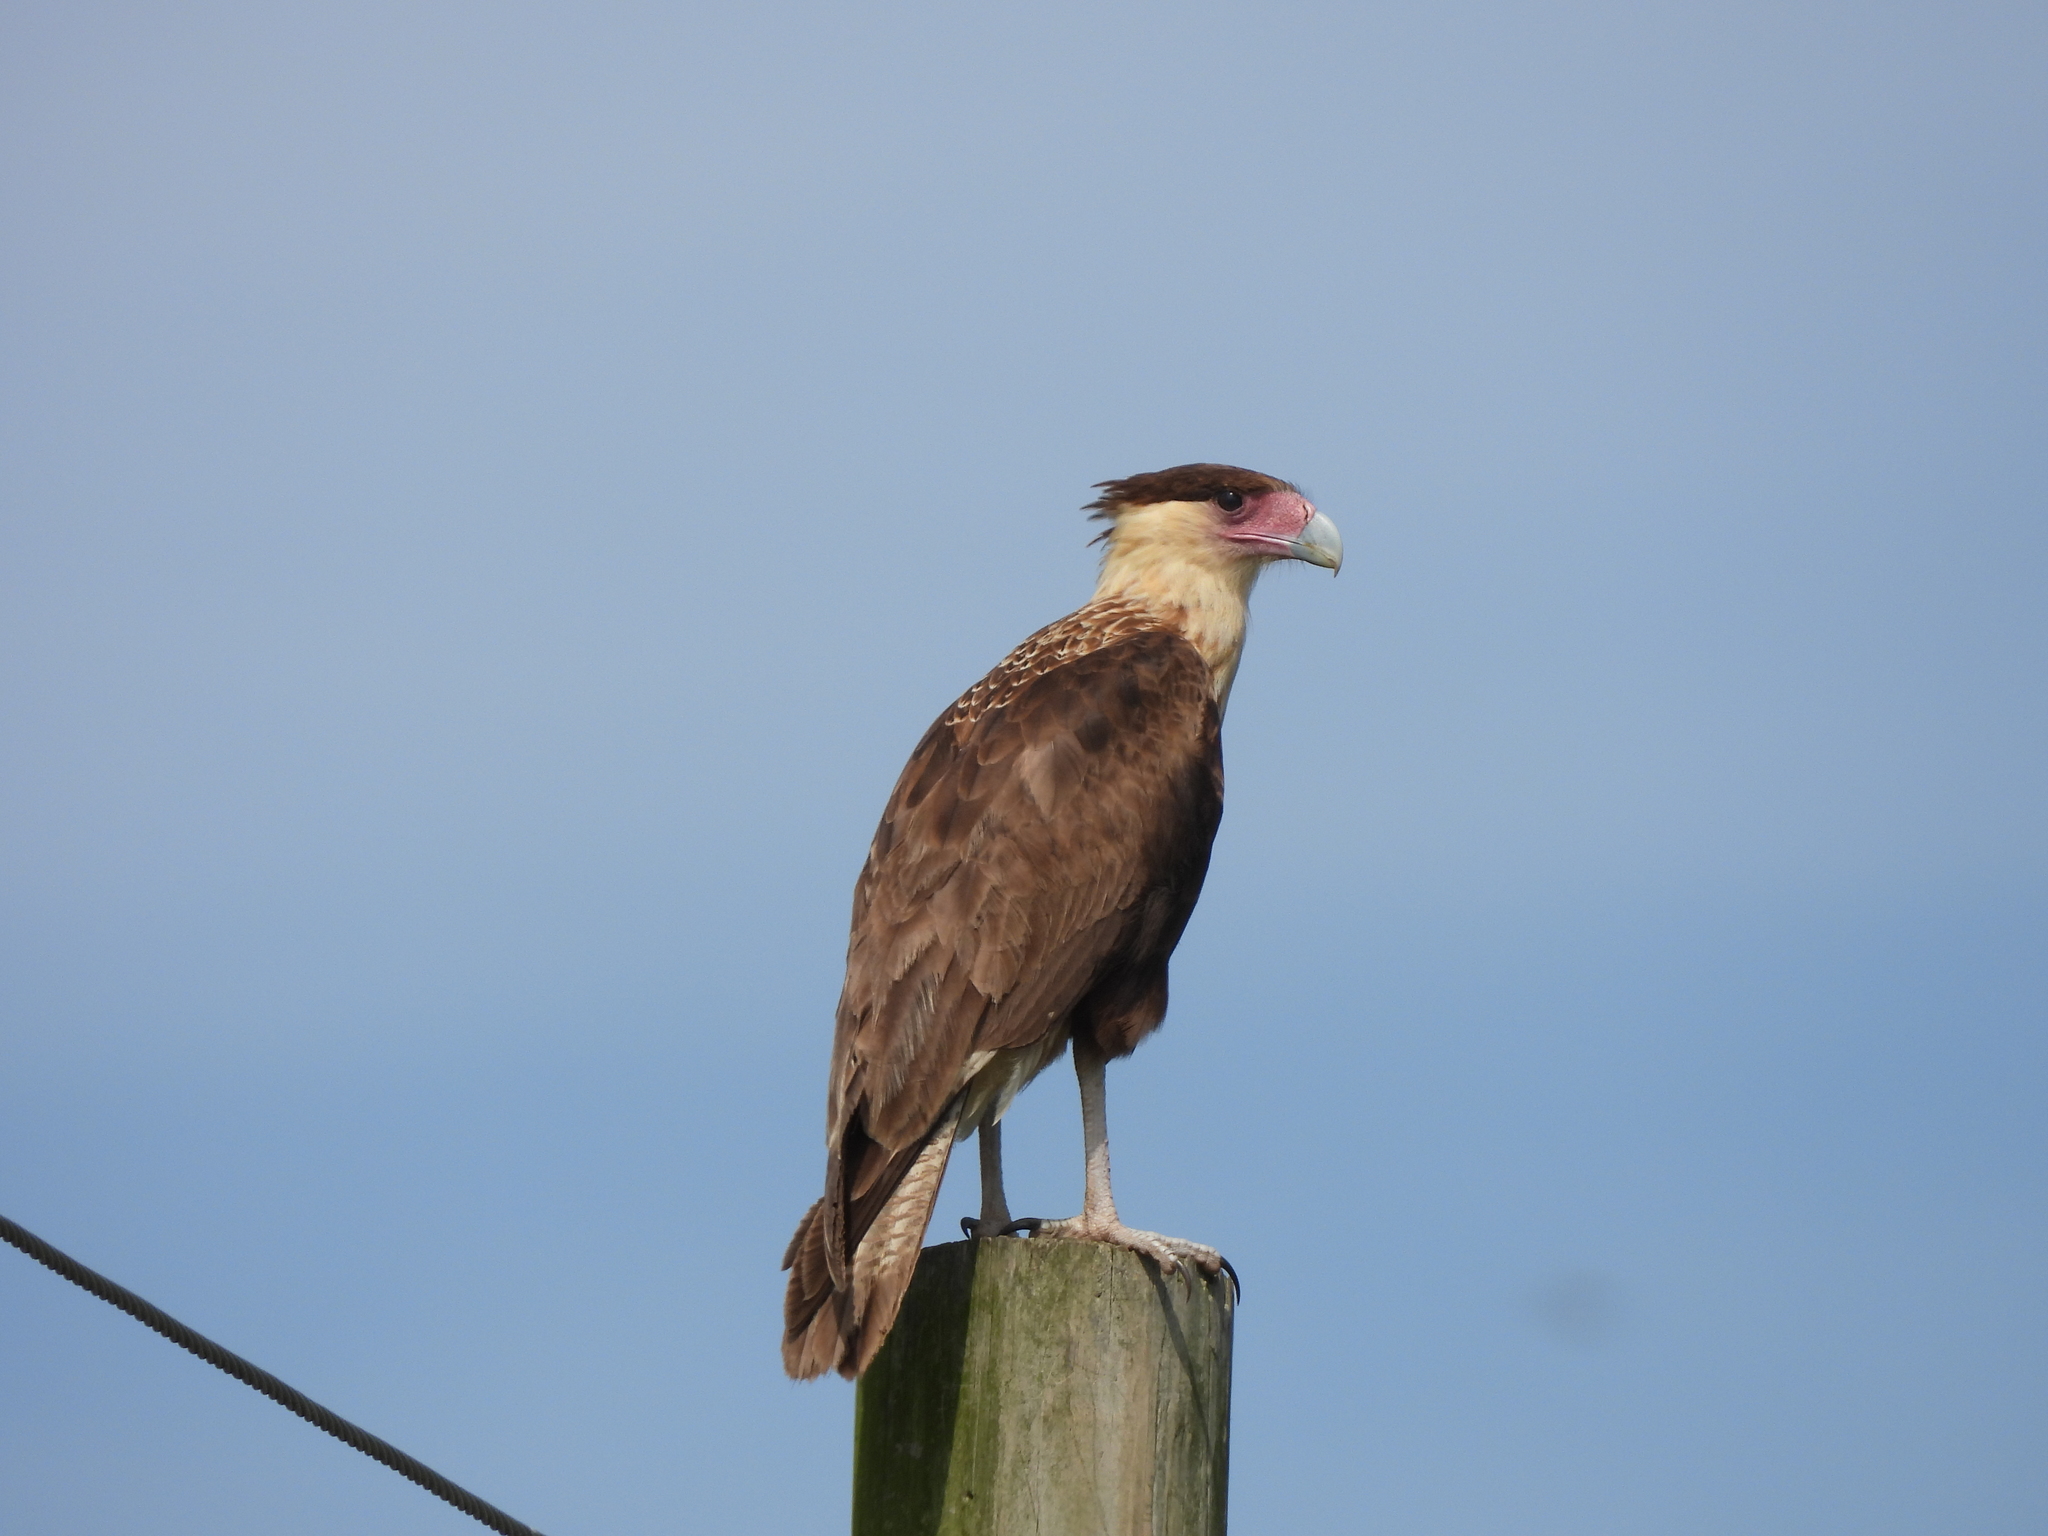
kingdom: Animalia
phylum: Chordata
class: Aves
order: Falconiformes
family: Falconidae
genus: Caracara
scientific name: Caracara plancus
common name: Southern caracara
